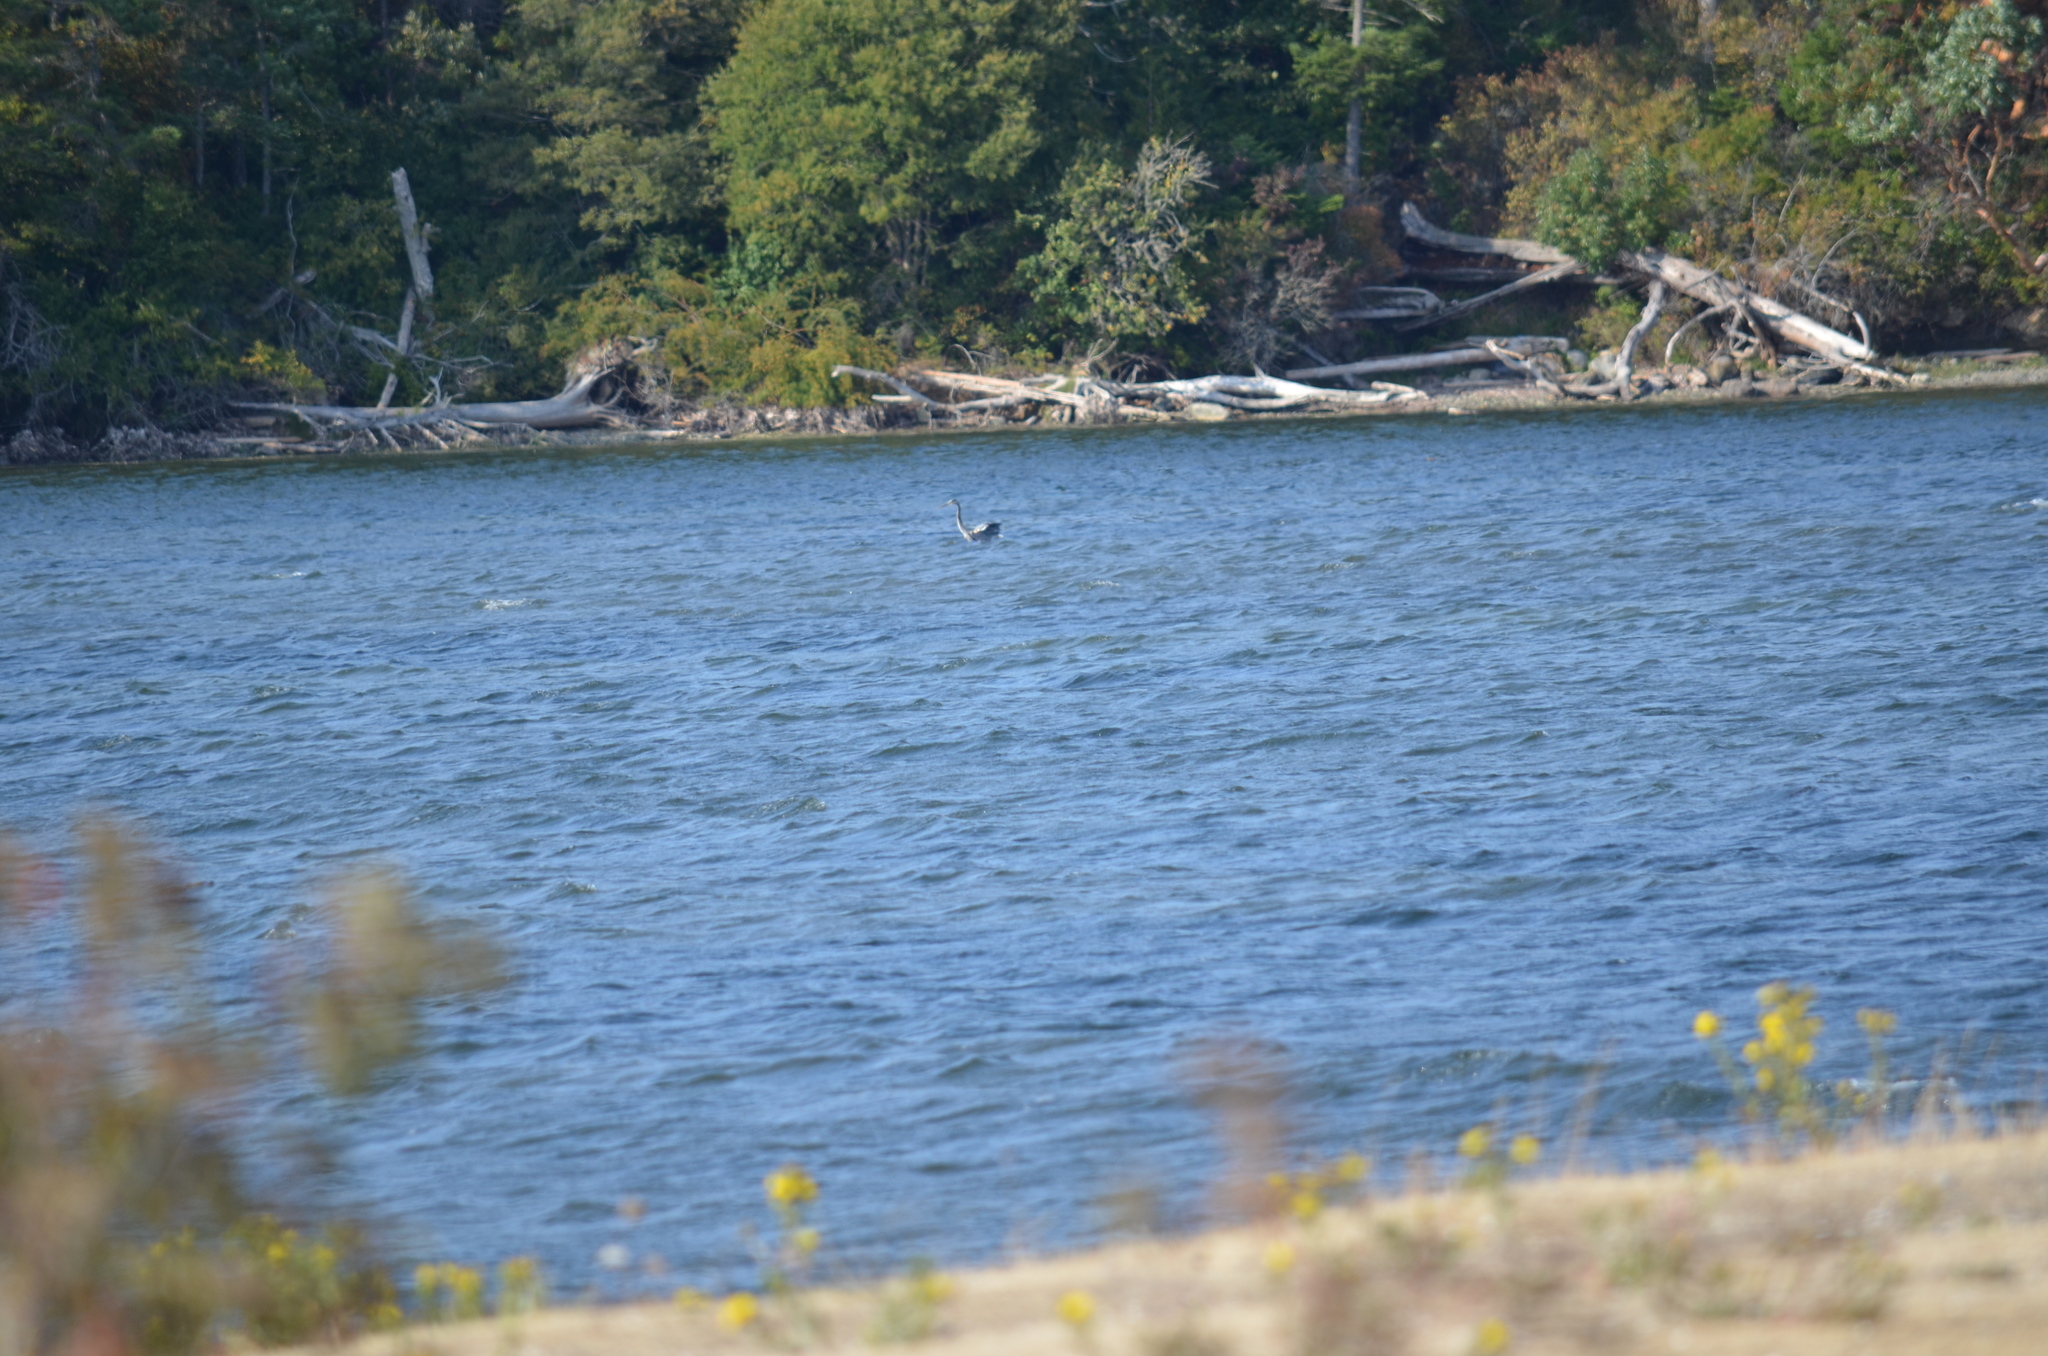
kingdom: Animalia
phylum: Chordata
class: Aves
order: Pelecaniformes
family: Ardeidae
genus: Ardea
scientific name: Ardea herodias
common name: Great blue heron
